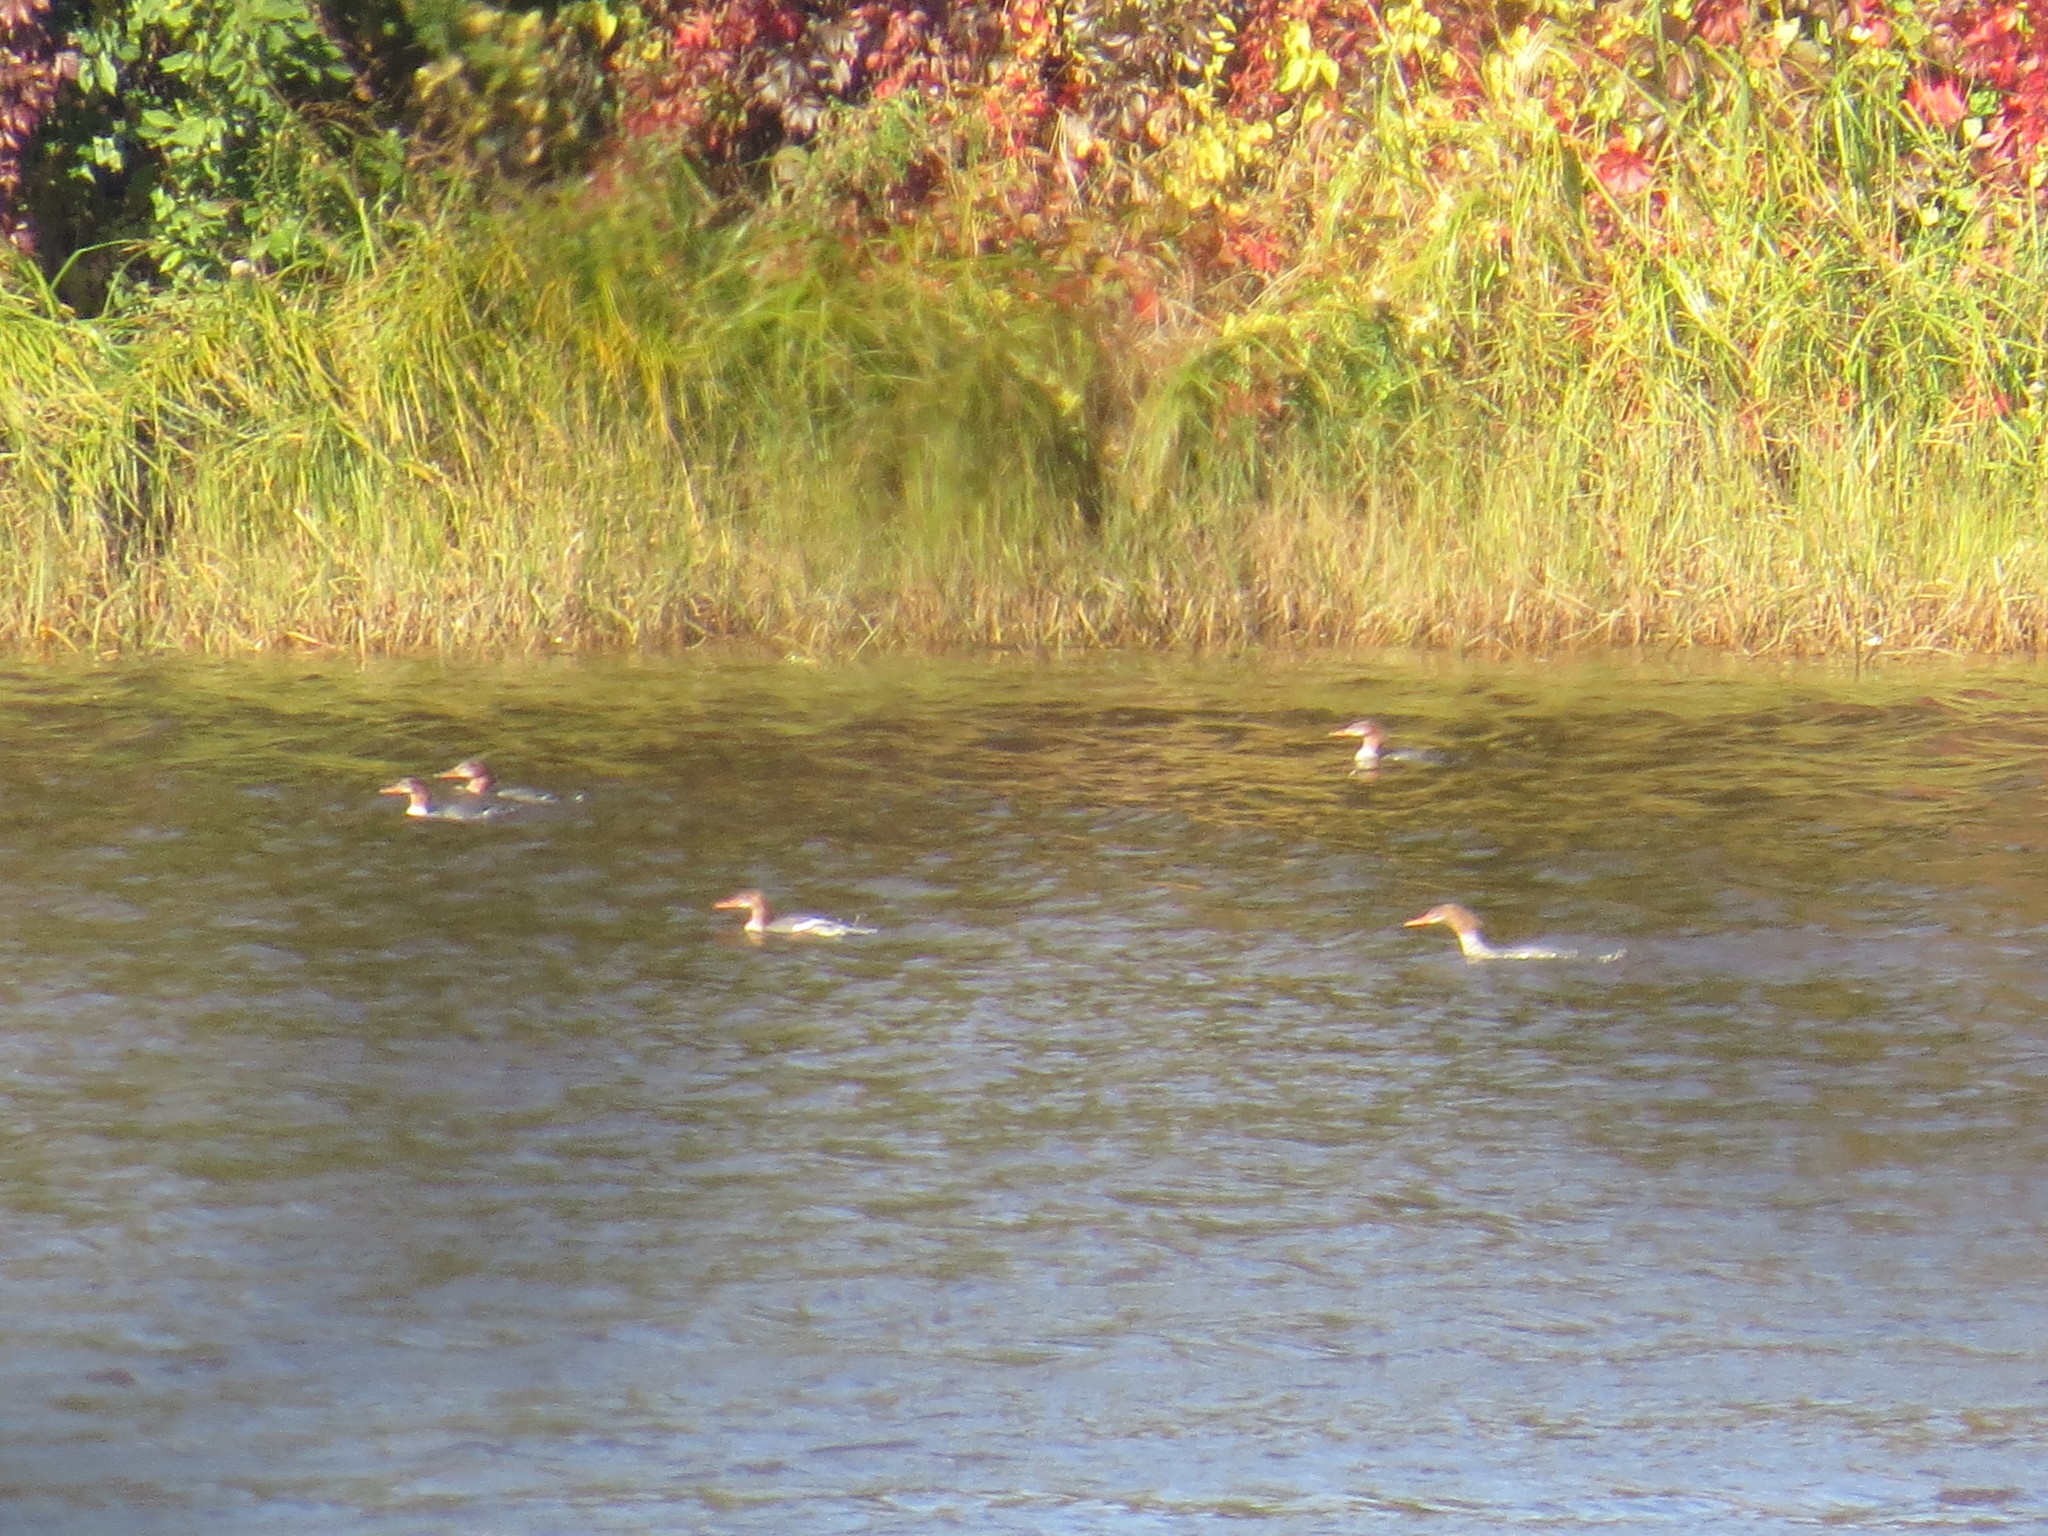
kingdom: Animalia
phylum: Chordata
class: Aves
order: Anseriformes
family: Anatidae
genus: Mergus
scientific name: Mergus merganser
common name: Common merganser
